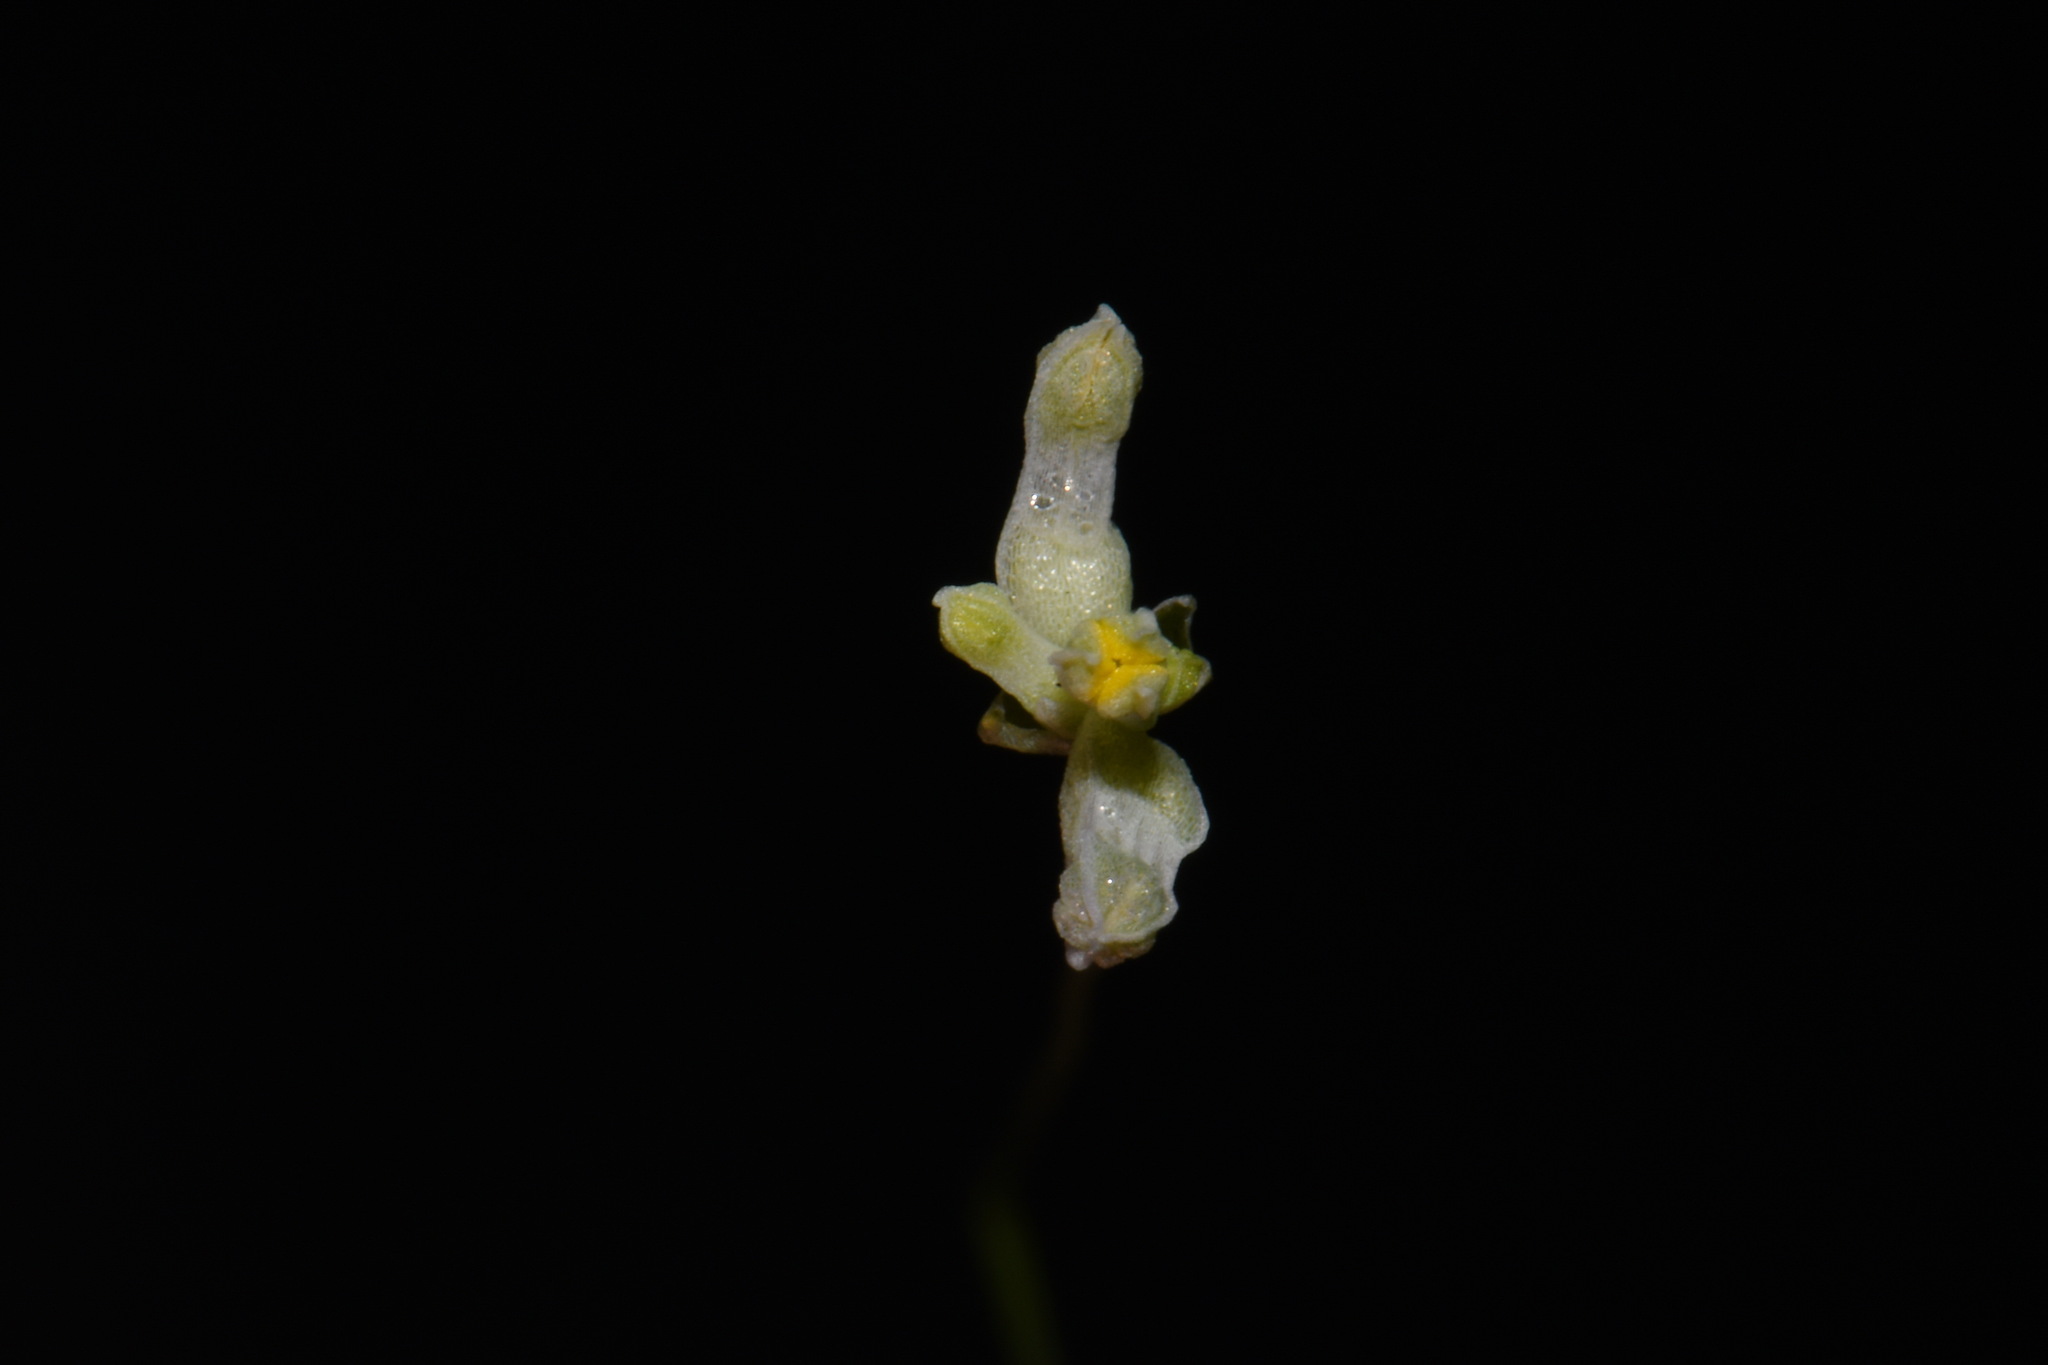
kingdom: Plantae
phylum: Tracheophyta
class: Liliopsida
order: Dioscoreales
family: Burmanniaceae
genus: Burmannia
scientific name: Burmannia capitata
